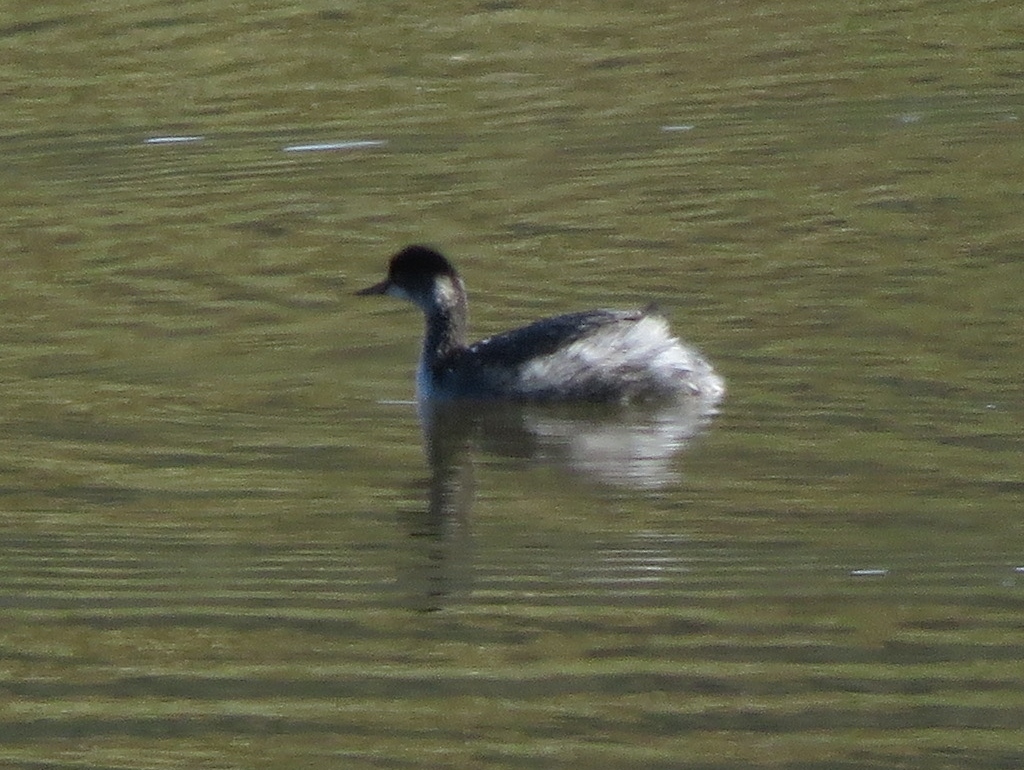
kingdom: Animalia
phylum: Chordata
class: Aves
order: Podicipediformes
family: Podicipedidae
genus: Podiceps
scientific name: Podiceps nigricollis
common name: Black-necked grebe
